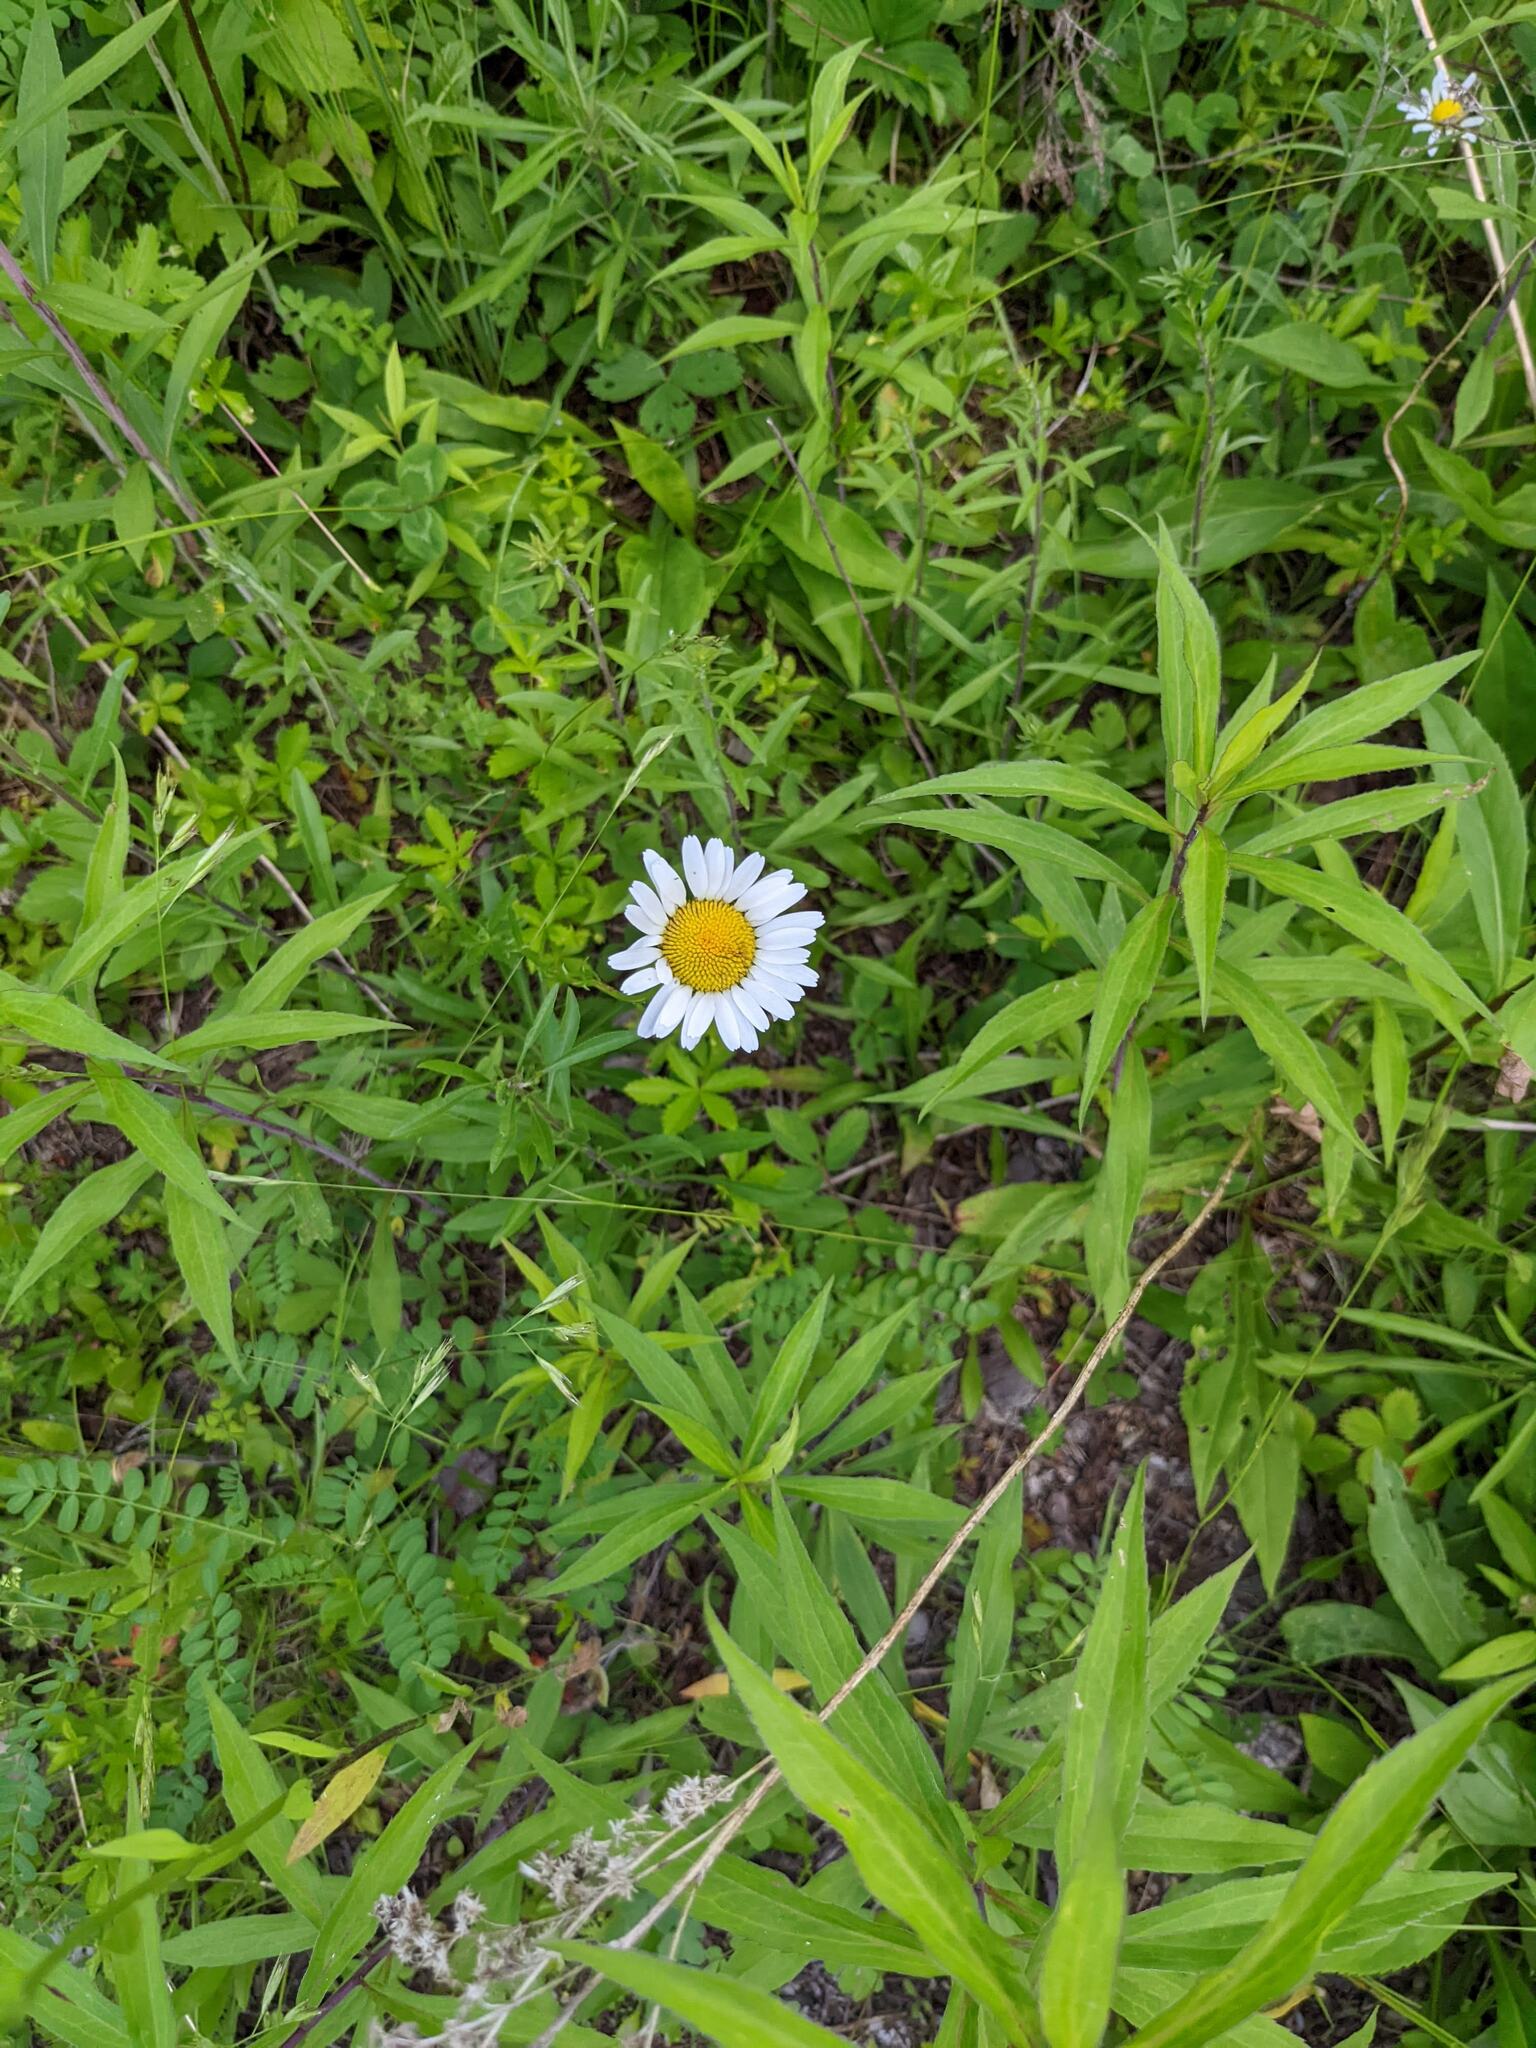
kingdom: Plantae
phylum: Tracheophyta
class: Magnoliopsida
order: Asterales
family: Asteraceae
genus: Leucanthemum
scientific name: Leucanthemum vulgare
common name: Oxeye daisy
